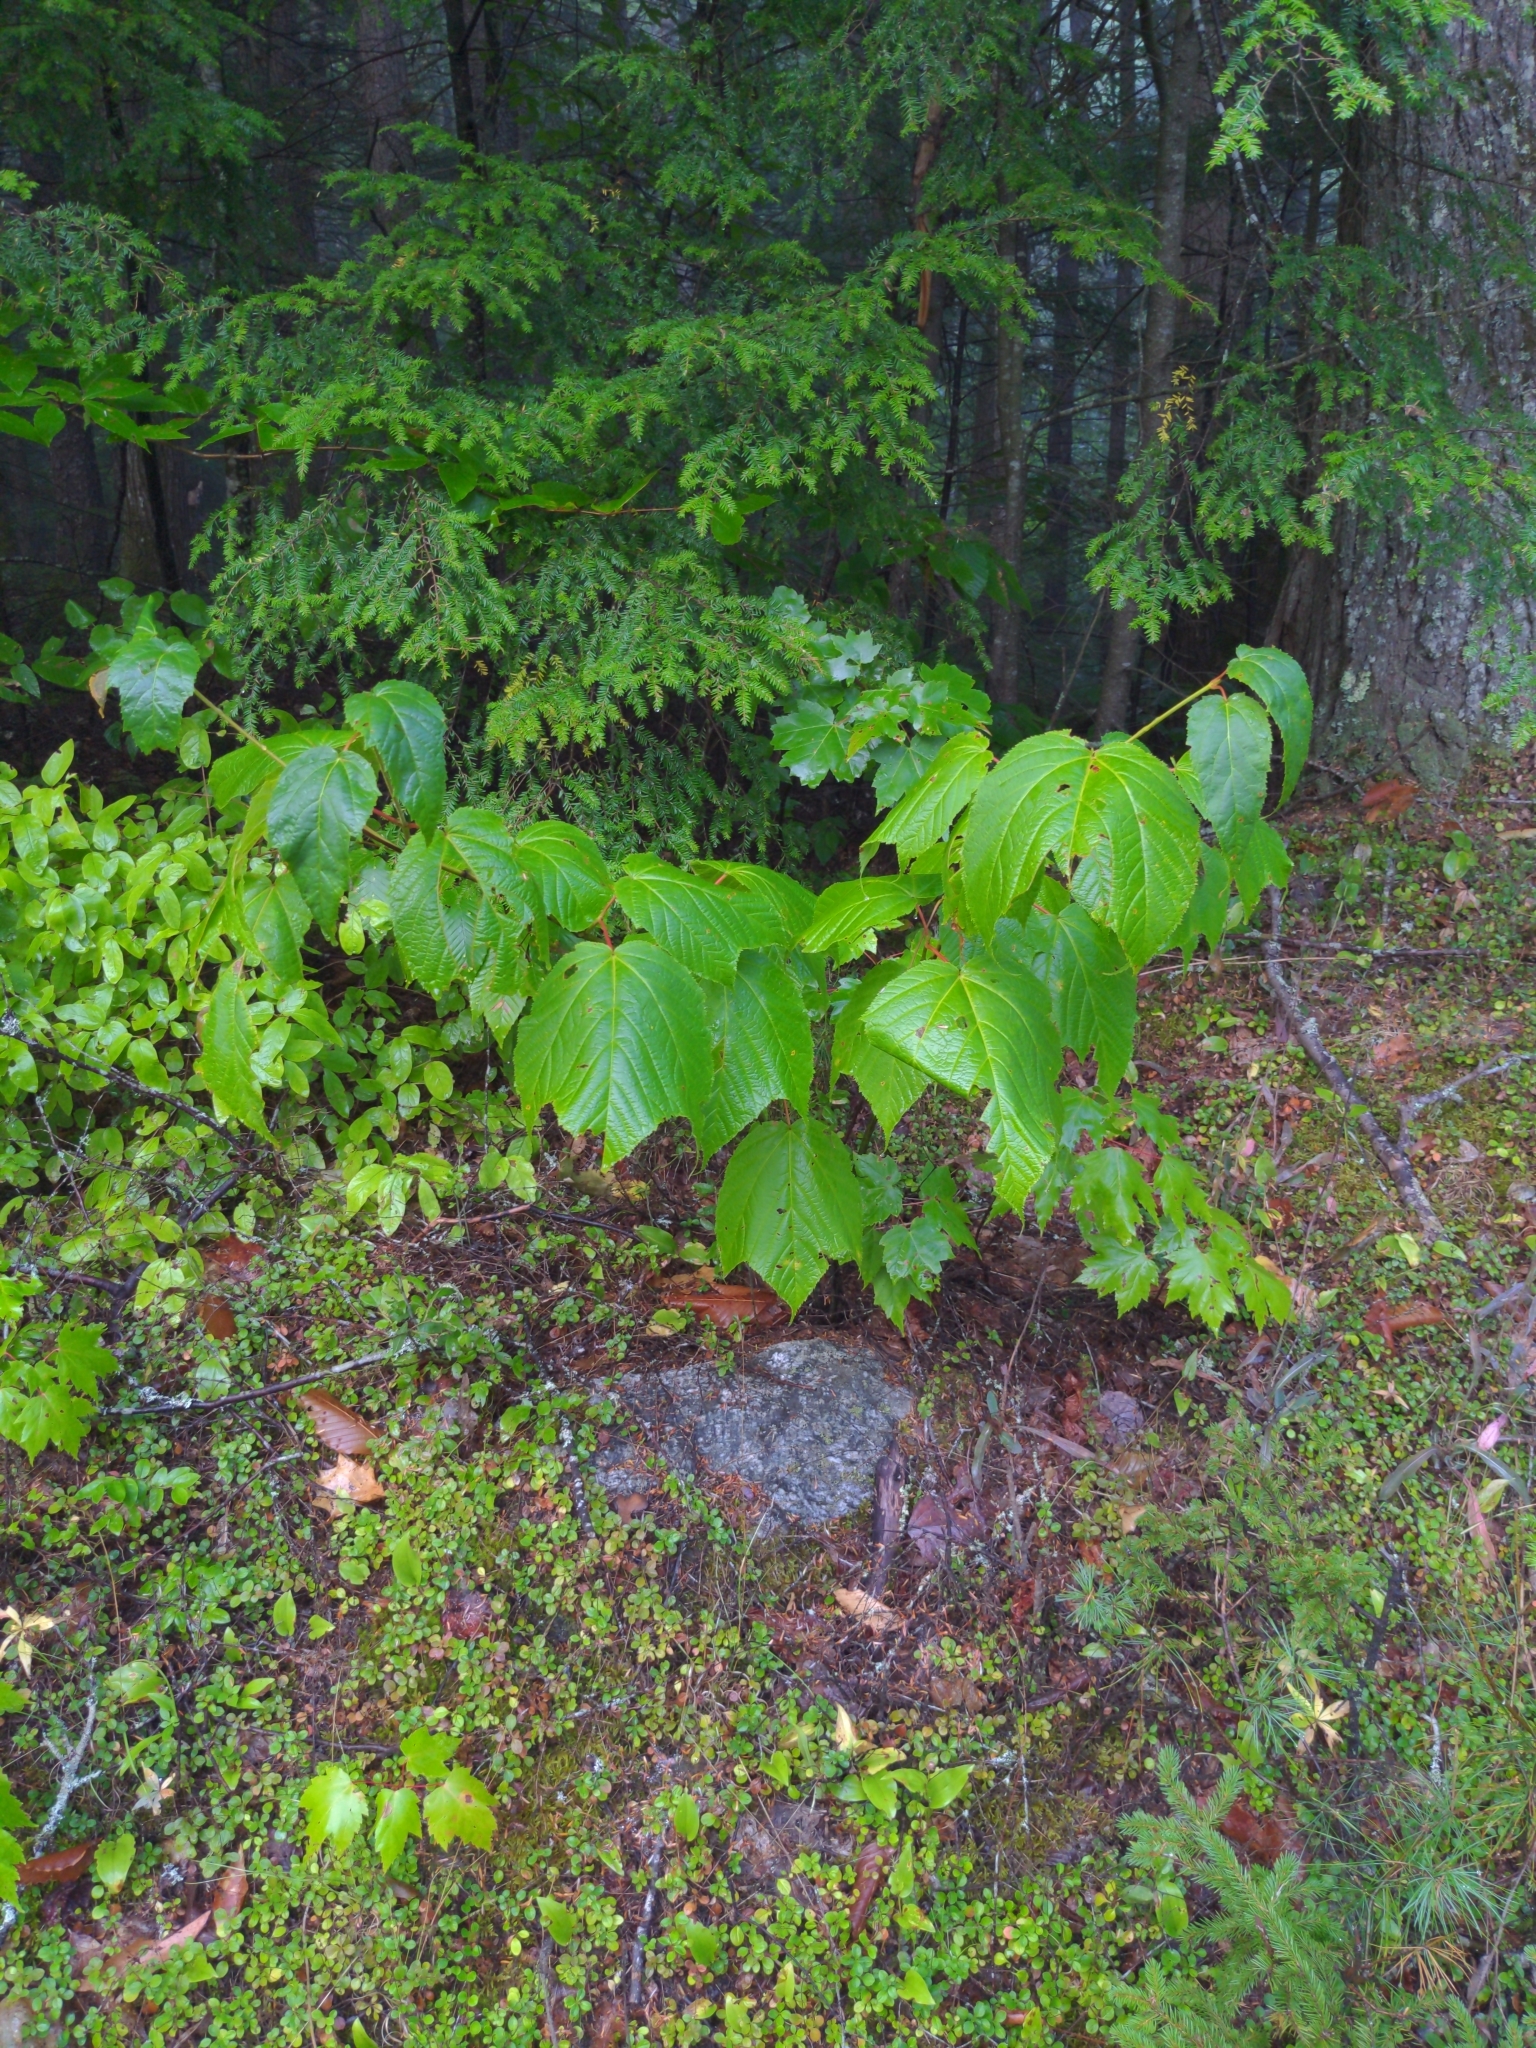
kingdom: Plantae
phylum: Tracheophyta
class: Magnoliopsida
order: Sapindales
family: Sapindaceae
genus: Acer
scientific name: Acer pensylvanicum
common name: Moosewood
